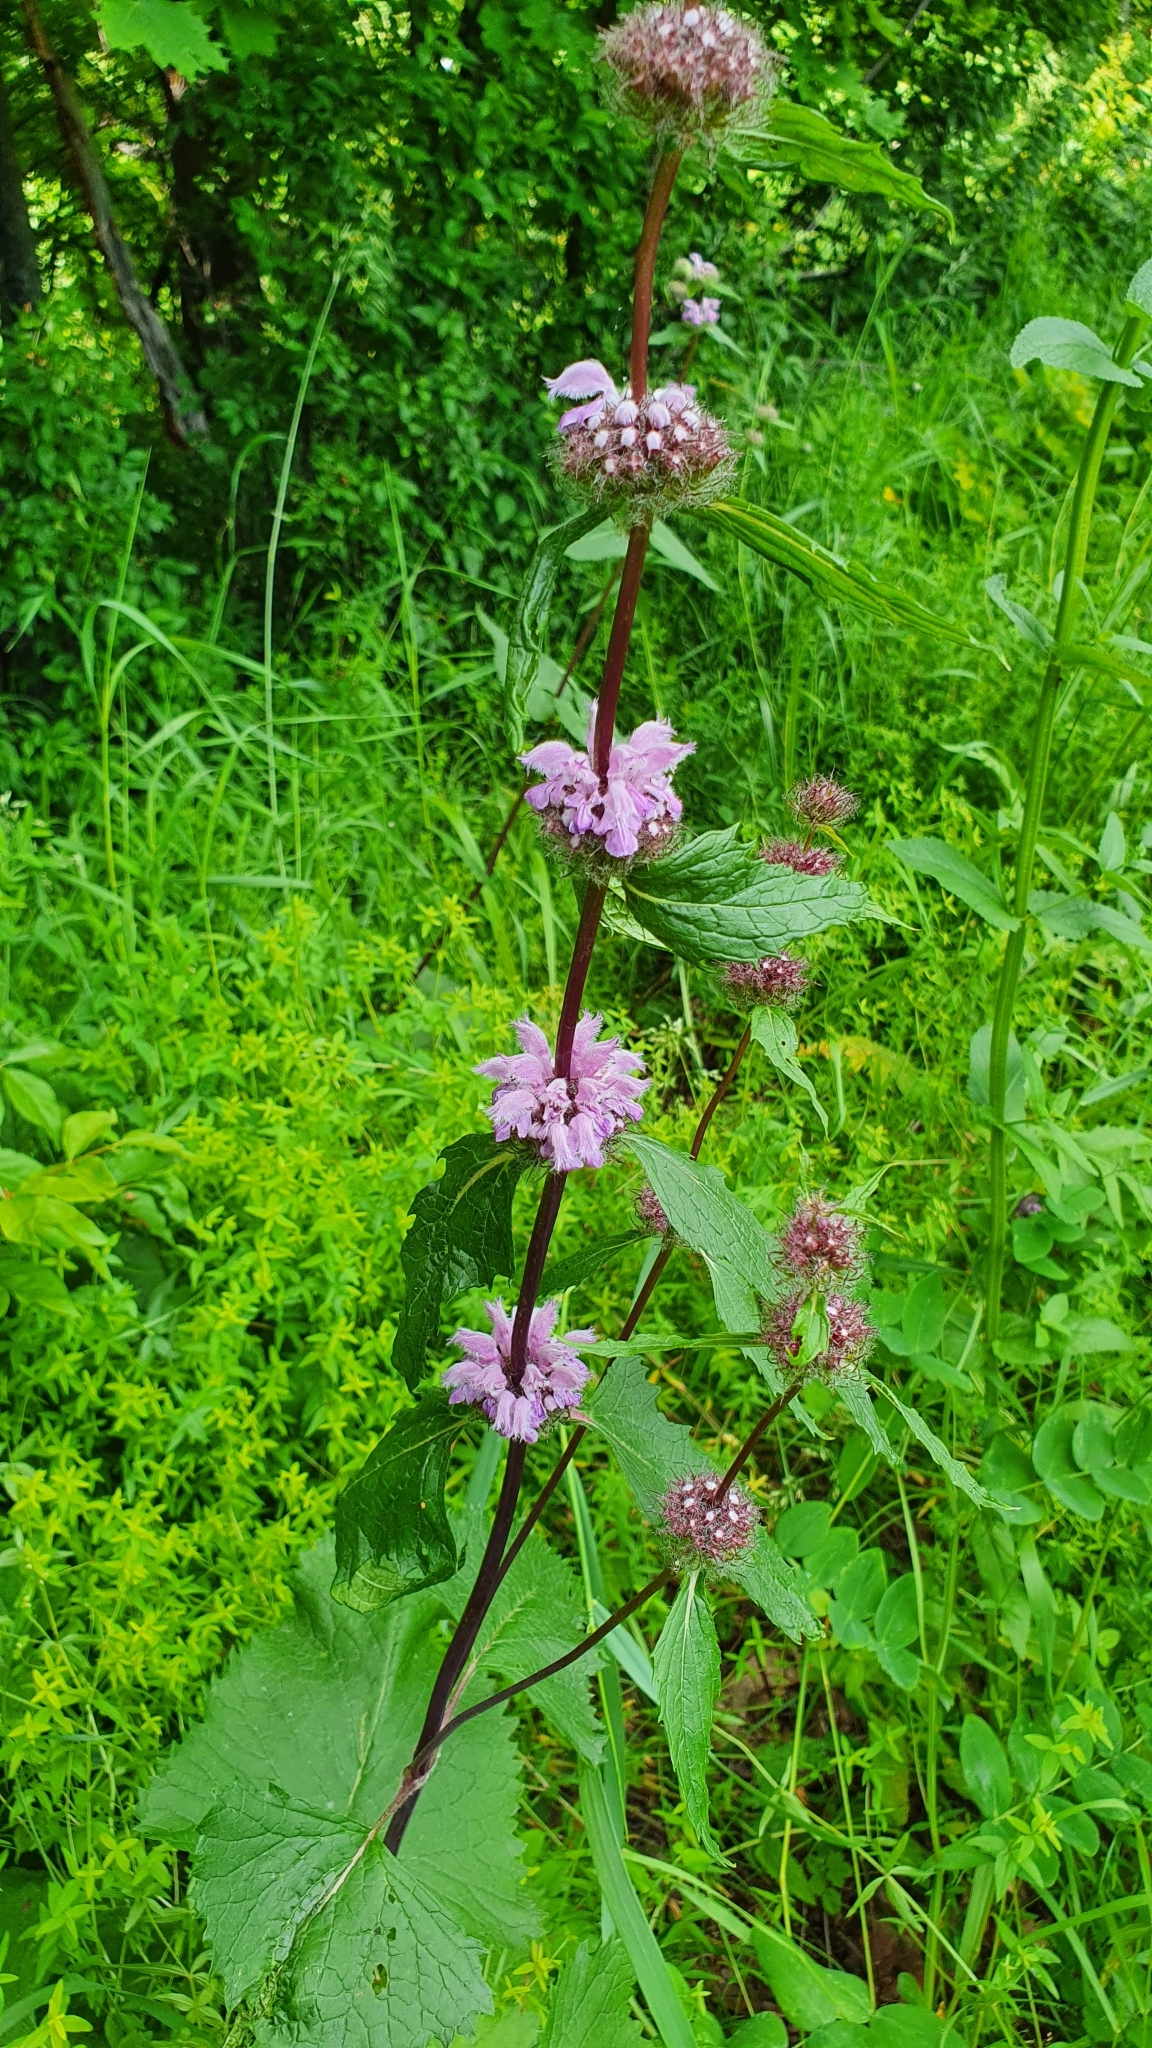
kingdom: Plantae
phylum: Tracheophyta
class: Magnoliopsida
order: Lamiales
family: Lamiaceae
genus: Phlomoides
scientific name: Phlomoides tuberosa
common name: Tuberous jerusalem sage
